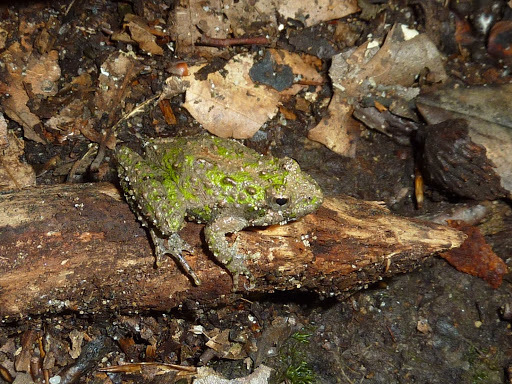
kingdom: Animalia
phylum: Chordata
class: Amphibia
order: Anura
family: Hylidae
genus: Acris
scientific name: Acris crepitans
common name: Northern cricket frog
